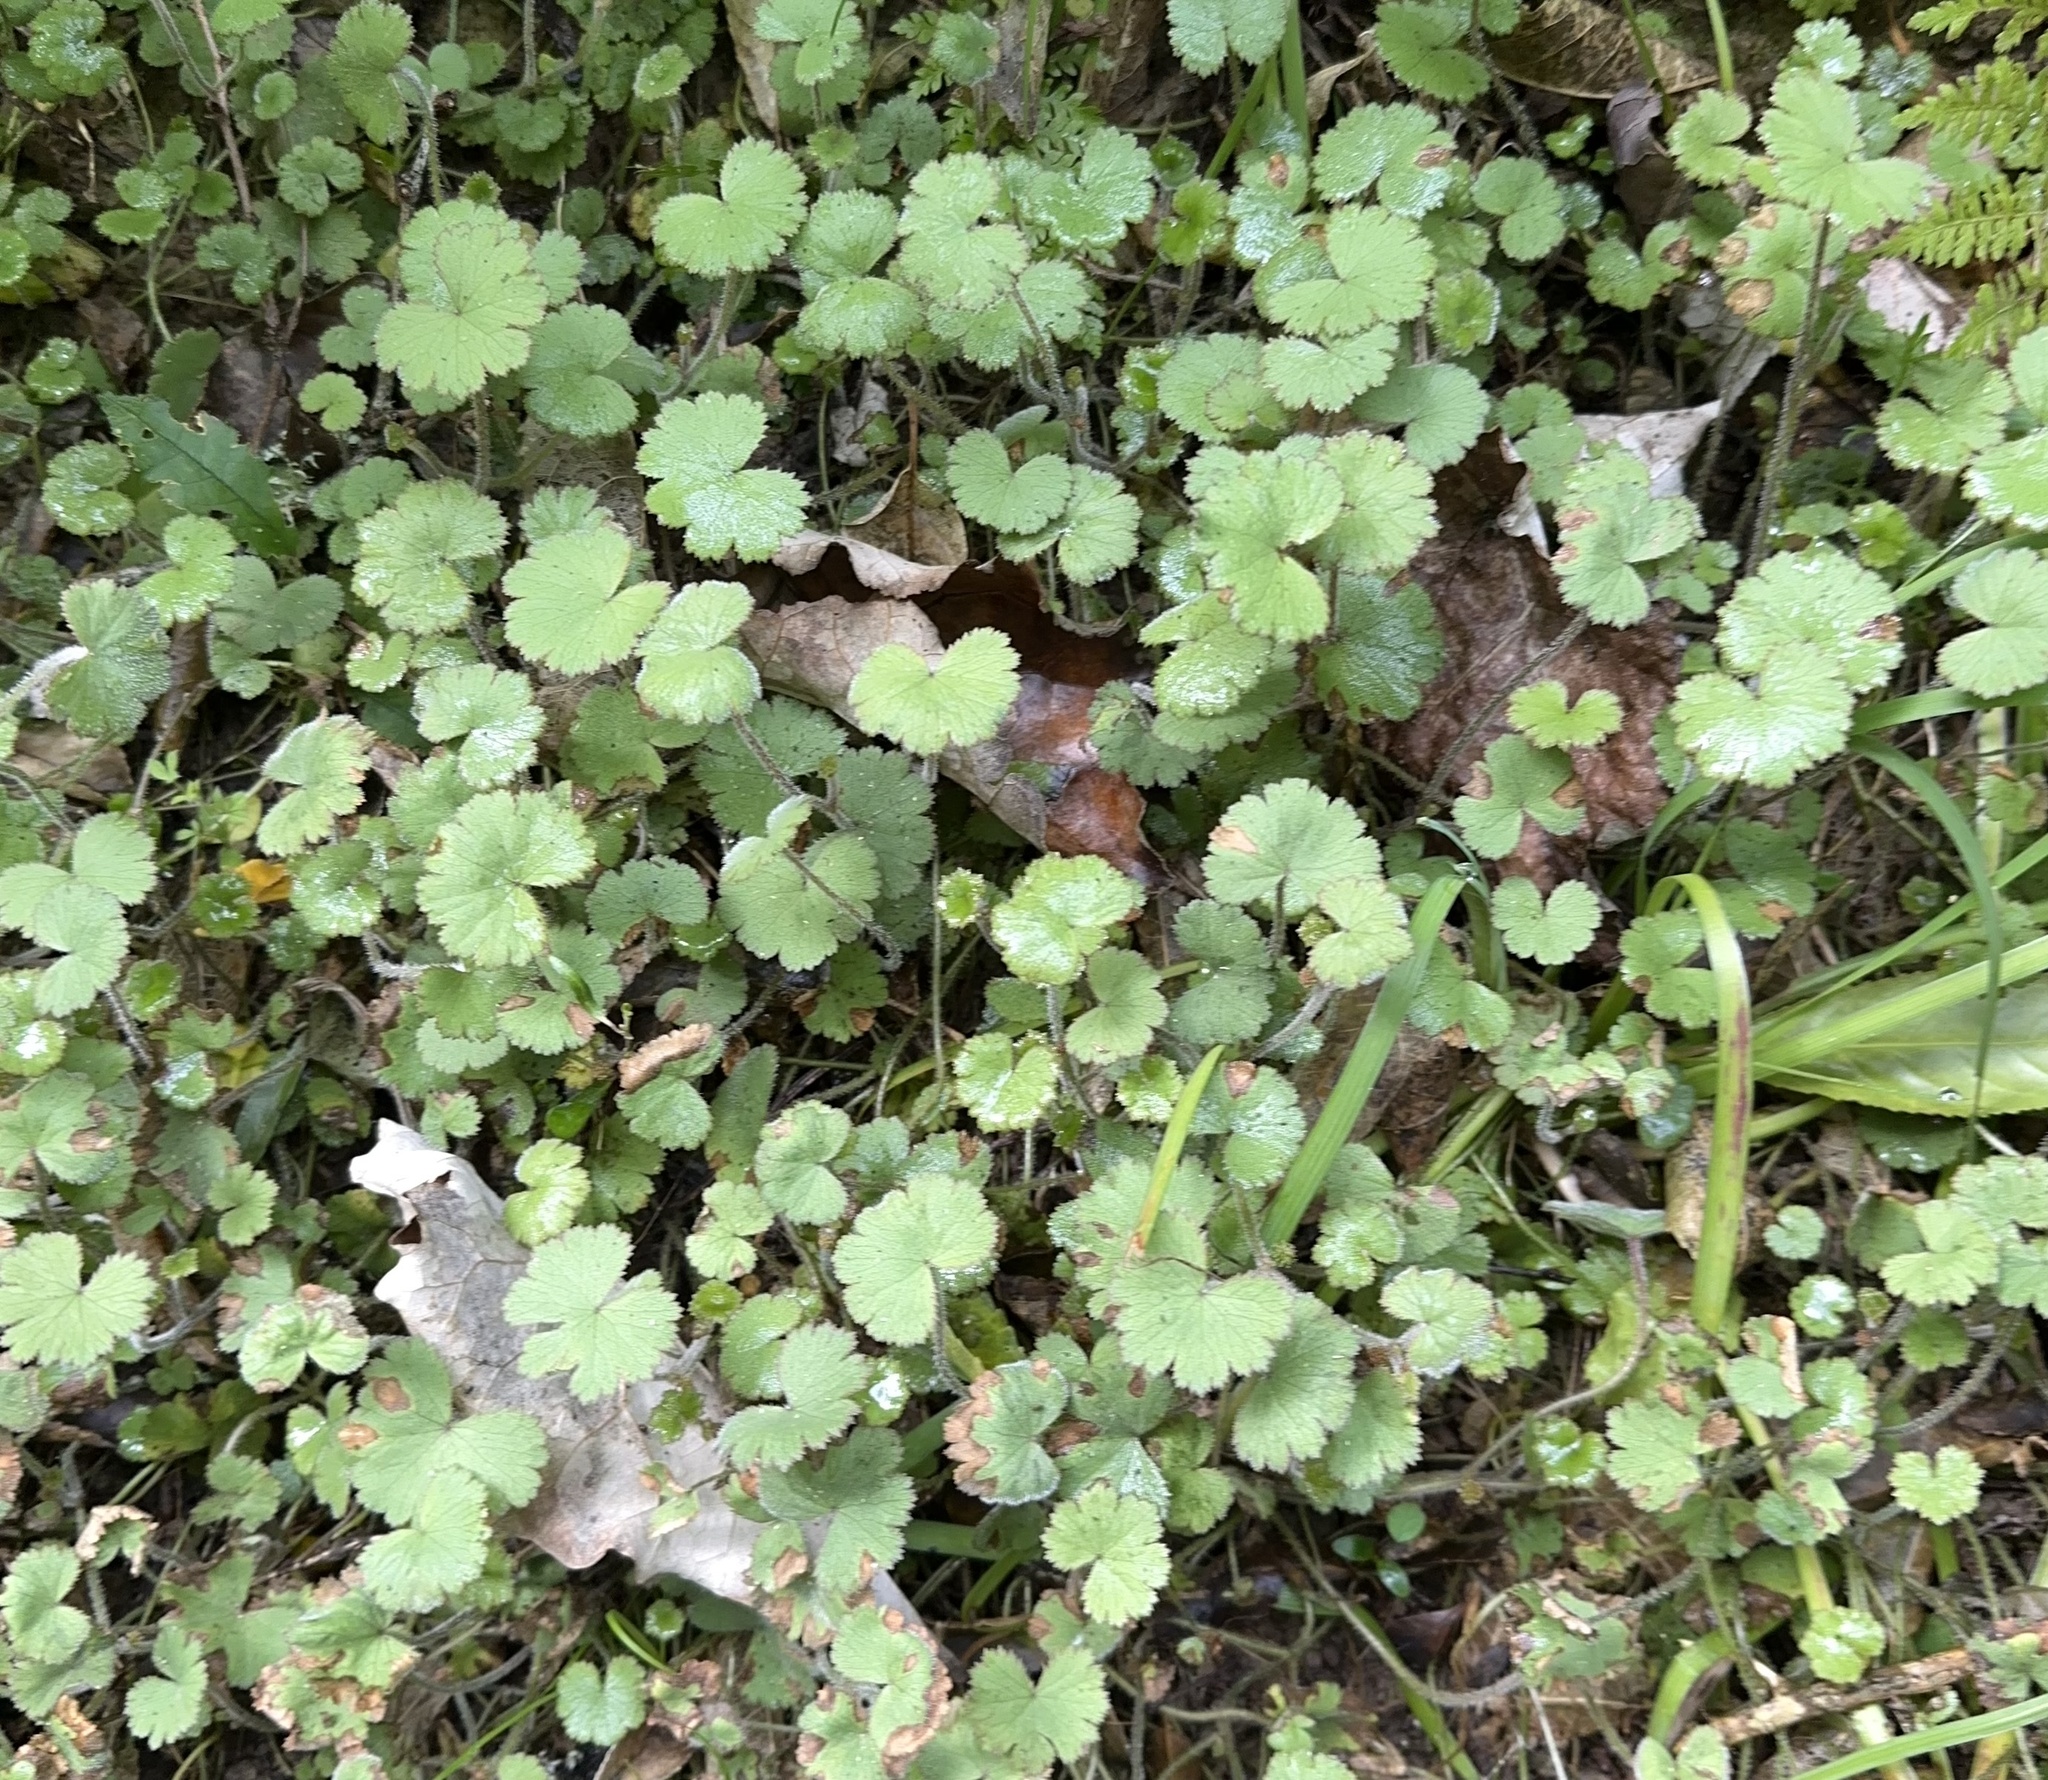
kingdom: Plantae
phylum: Tracheophyta
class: Magnoliopsida
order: Apiales
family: Araliaceae
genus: Hydrocotyle
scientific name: Hydrocotyle moschata
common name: Hairy pennywort
